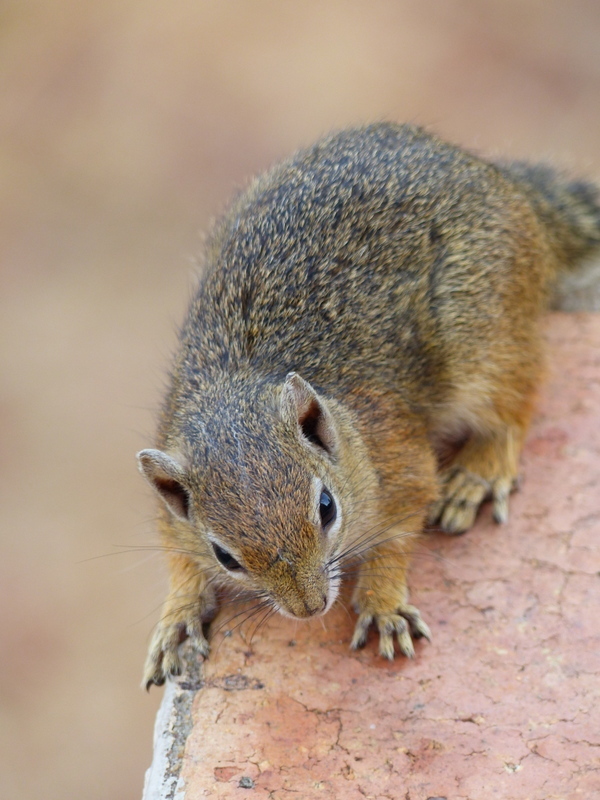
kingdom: Animalia
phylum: Chordata
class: Mammalia
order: Rodentia
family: Sciuridae
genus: Paraxerus
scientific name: Paraxerus cepapi
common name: Smith's bush squirrel
